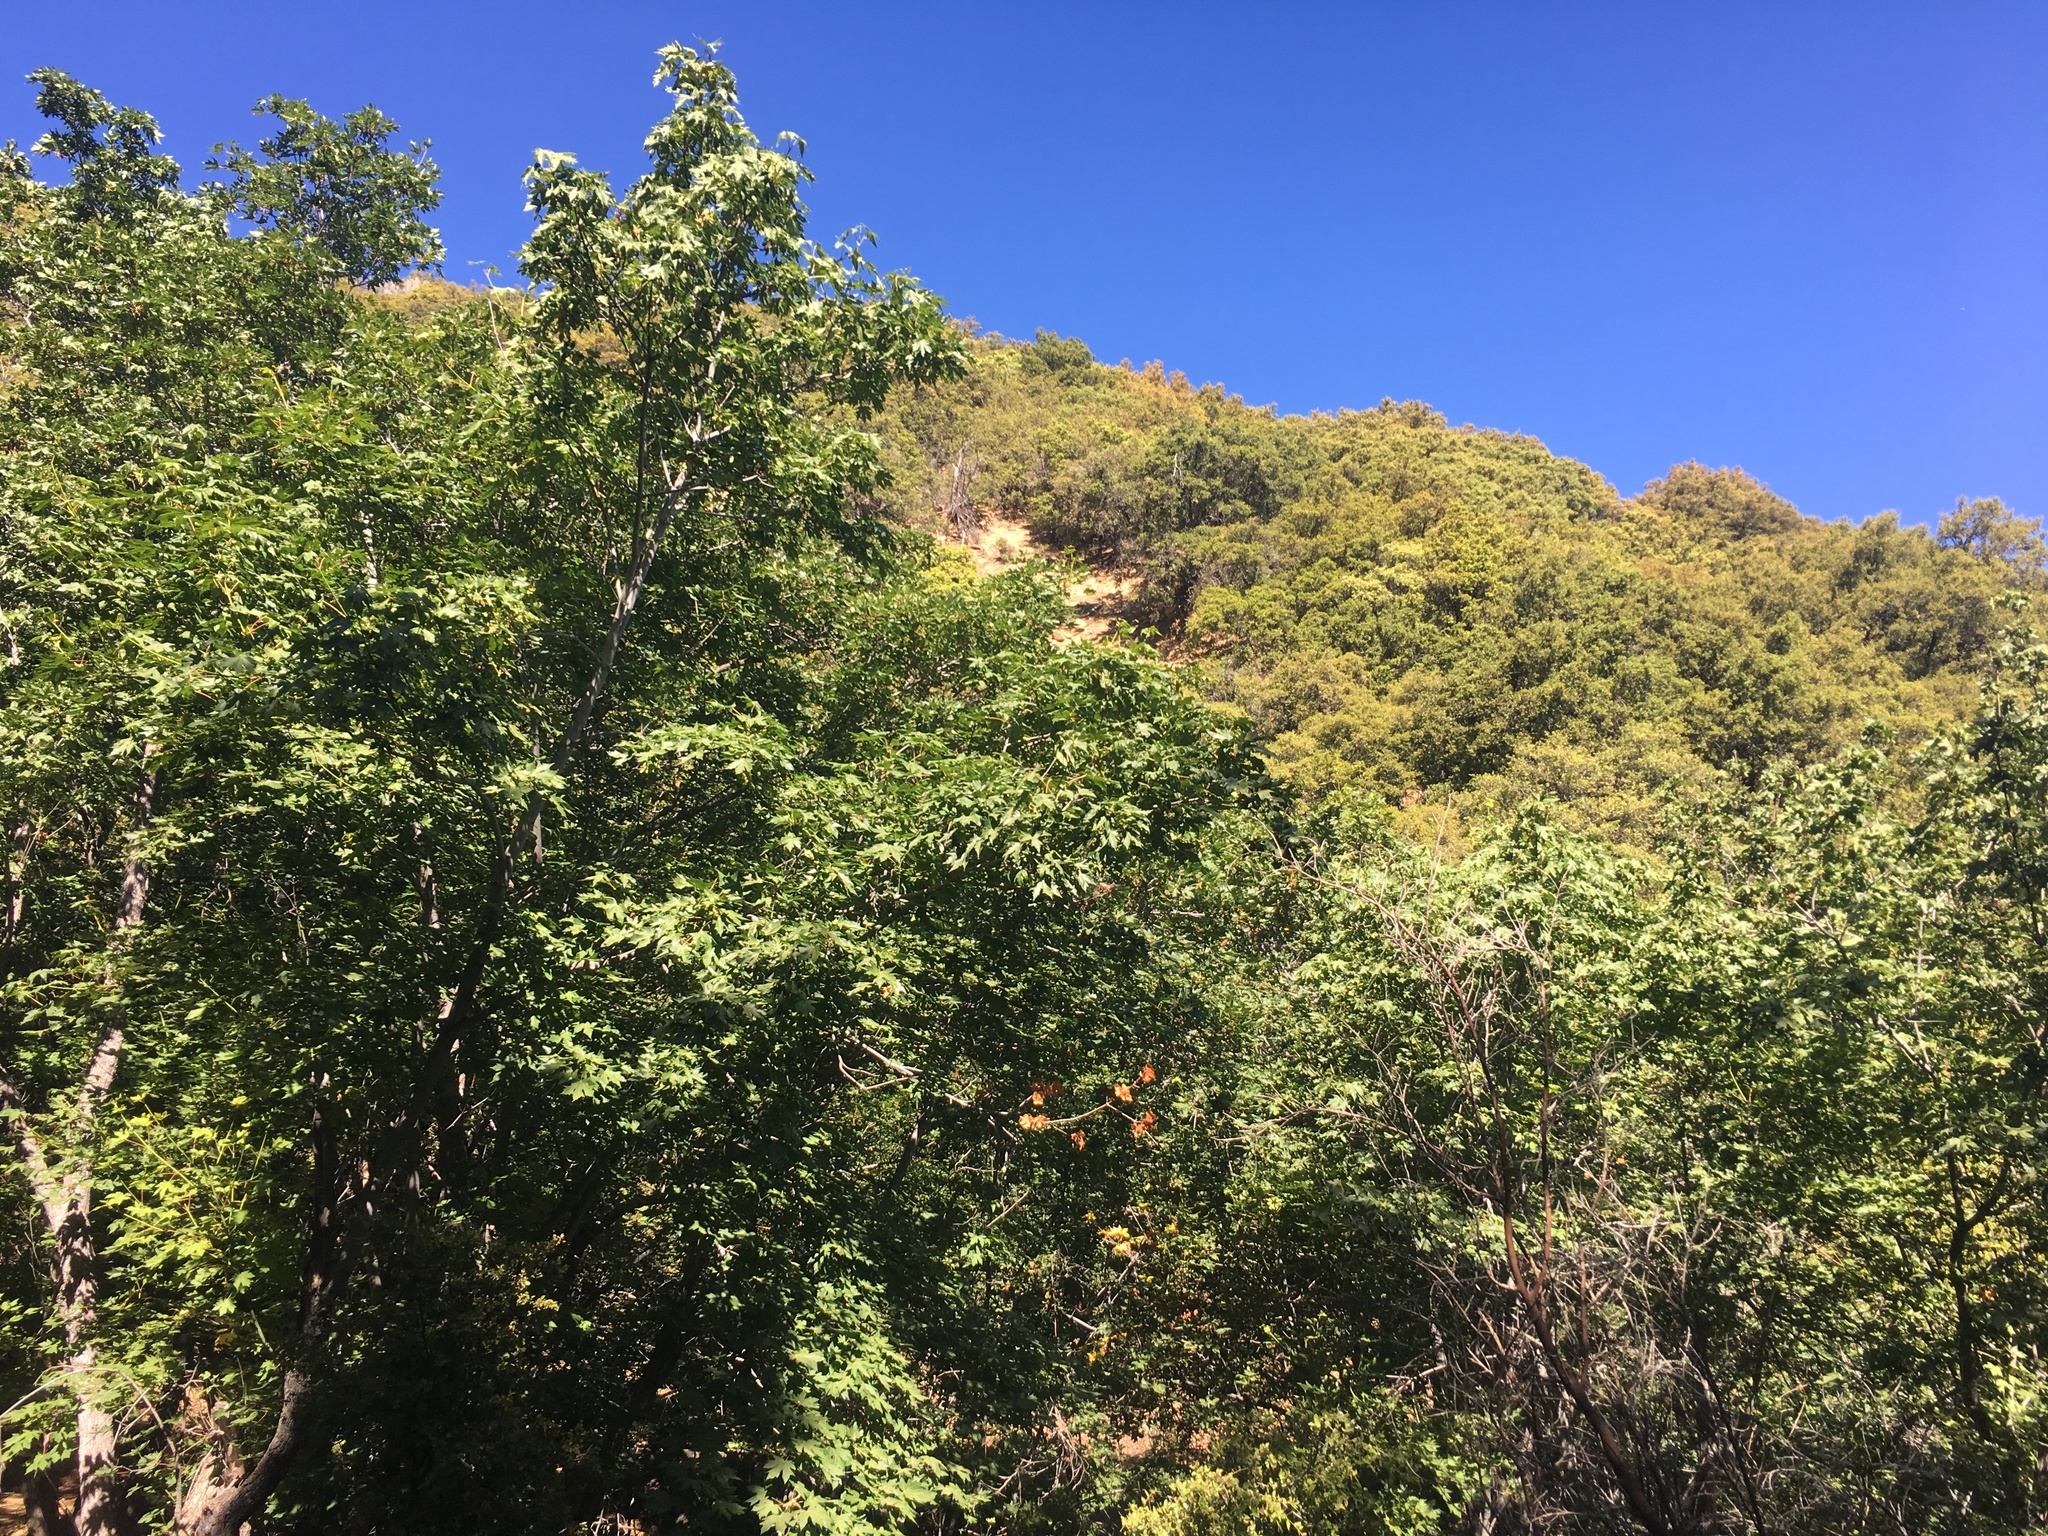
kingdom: Plantae
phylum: Tracheophyta
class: Magnoliopsida
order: Sapindales
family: Sapindaceae
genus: Acer
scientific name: Acer macrophyllum
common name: Oregon maple
